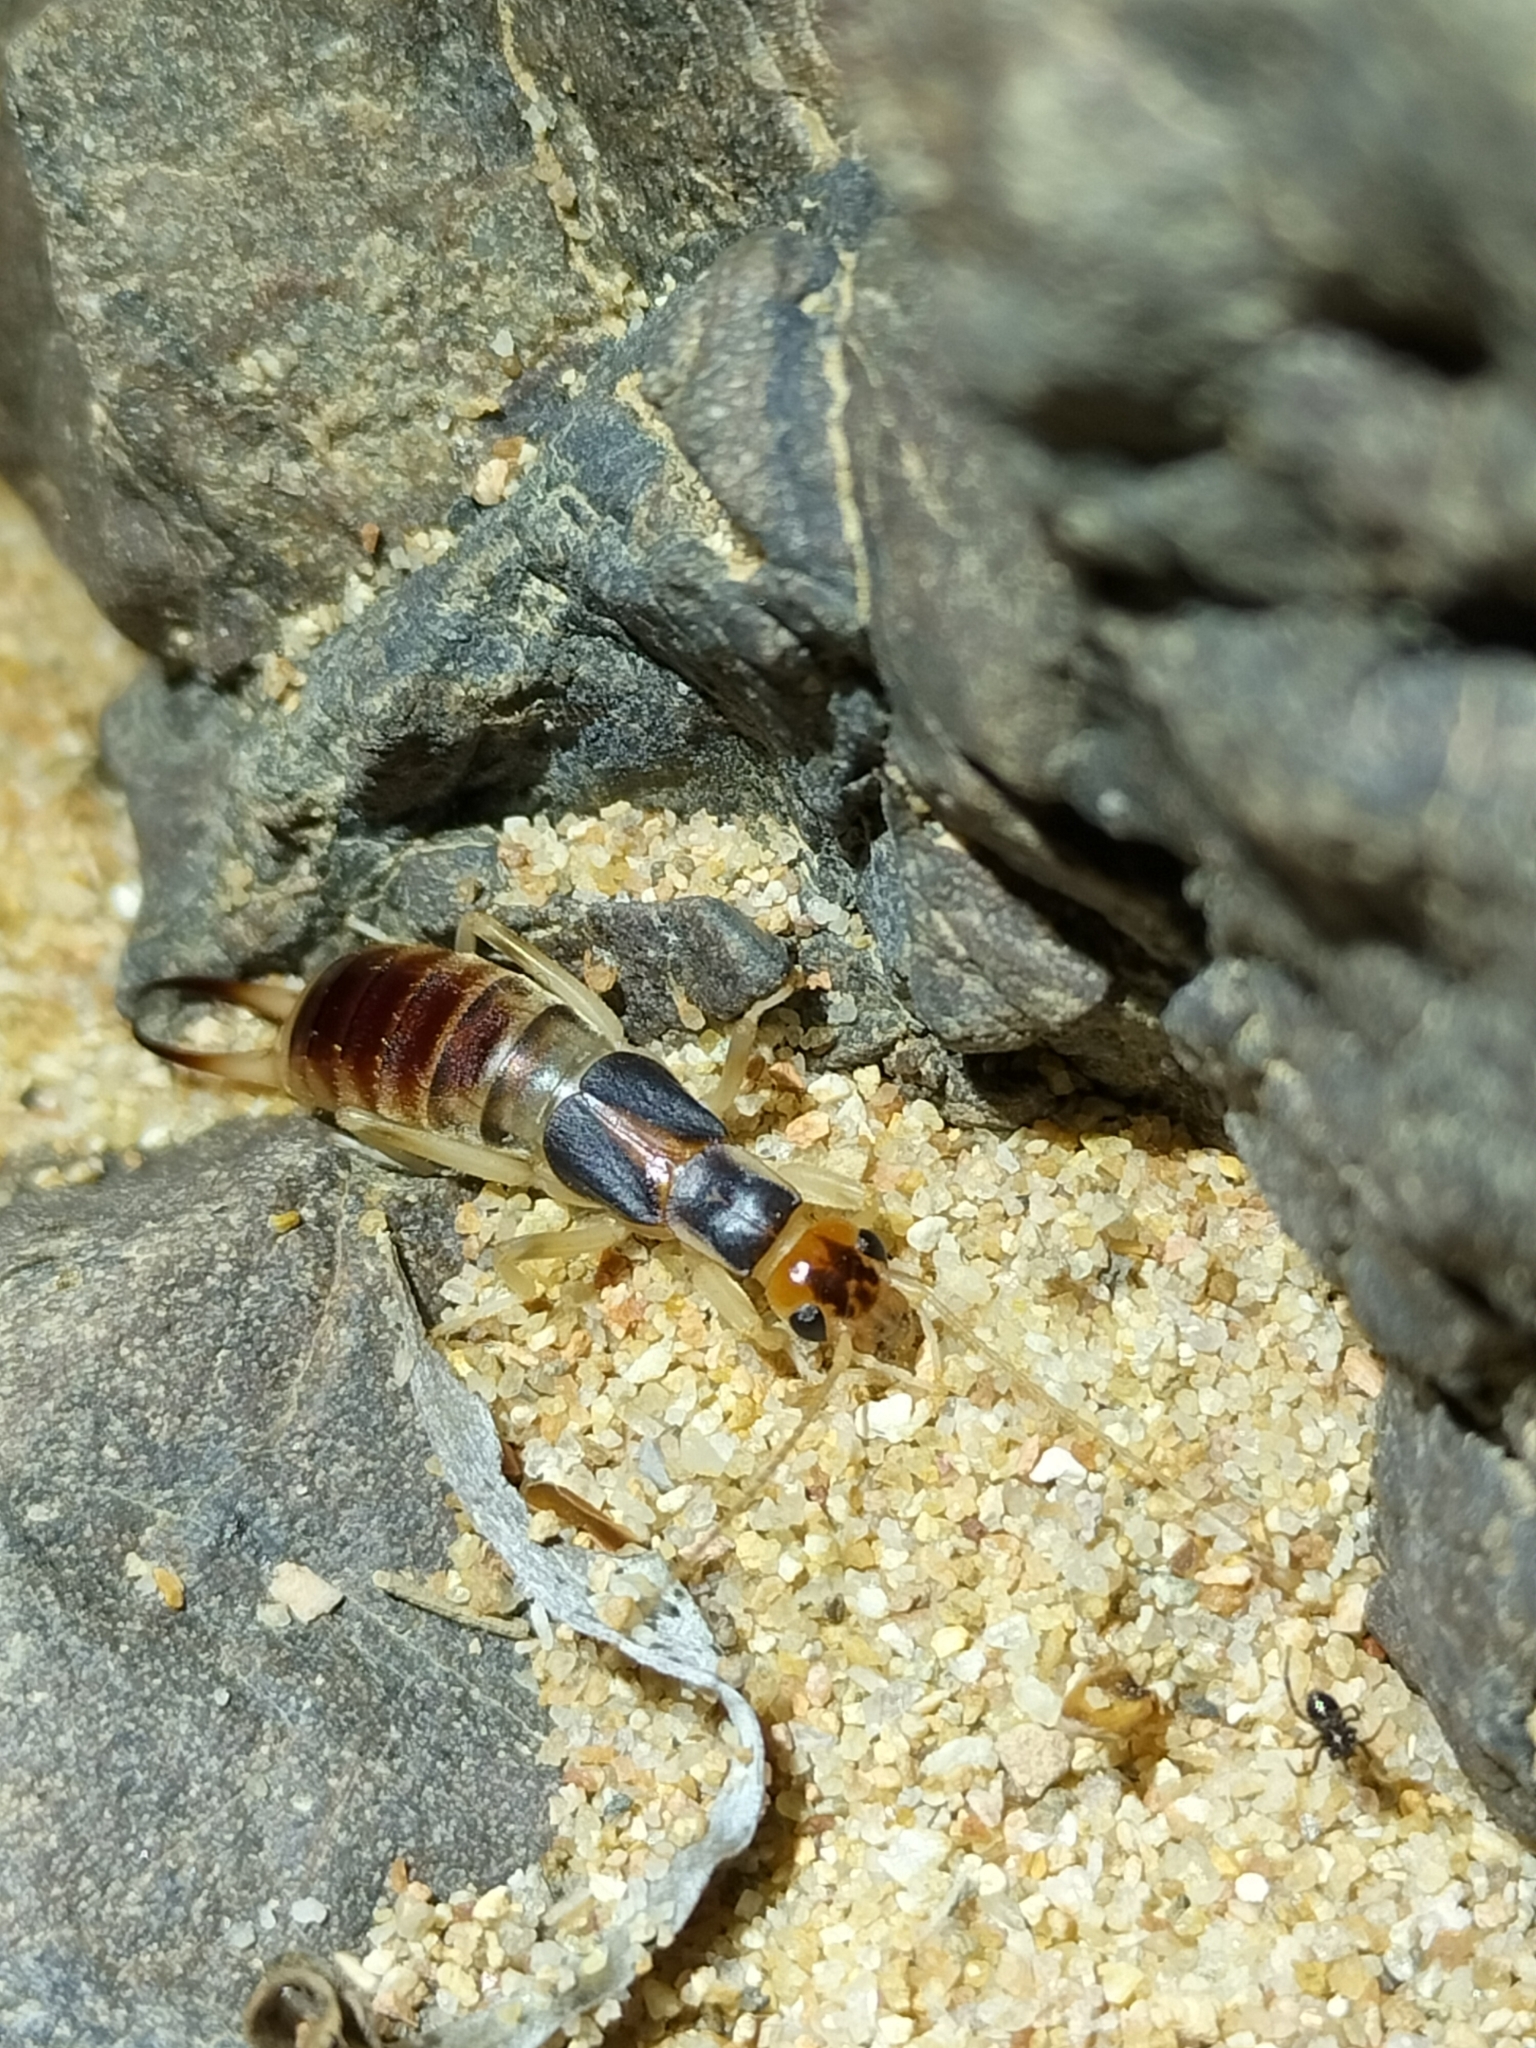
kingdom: Animalia
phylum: Arthropoda
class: Insecta
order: Dermaptera
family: Labiduridae
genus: Labidura
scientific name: Labidura riparia
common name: Striped earwig
